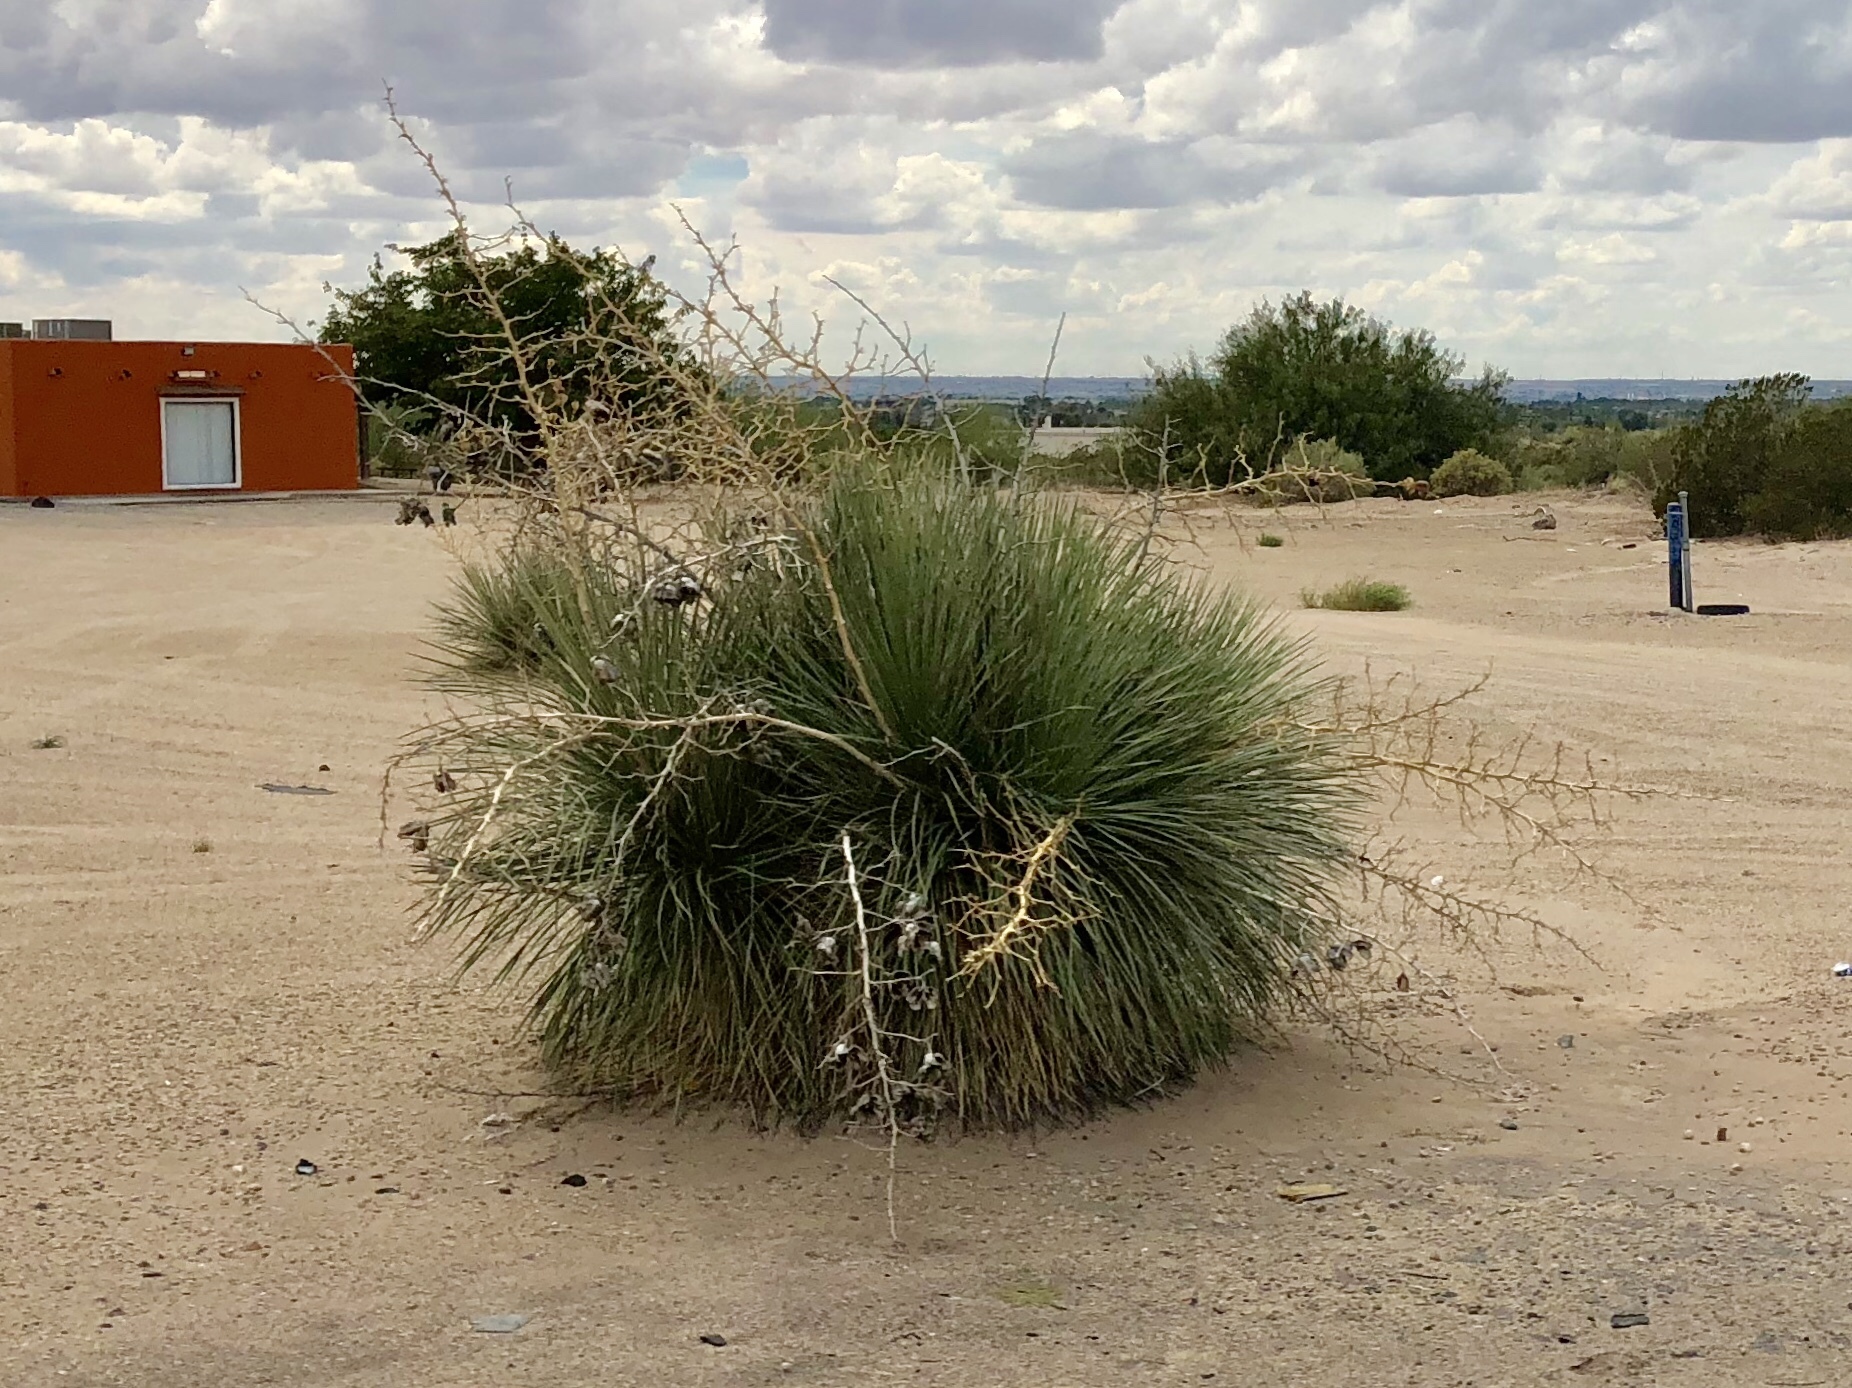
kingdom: Plantae
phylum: Tracheophyta
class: Liliopsida
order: Asparagales
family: Asparagaceae
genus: Yucca
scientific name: Yucca elata
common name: Palmella
